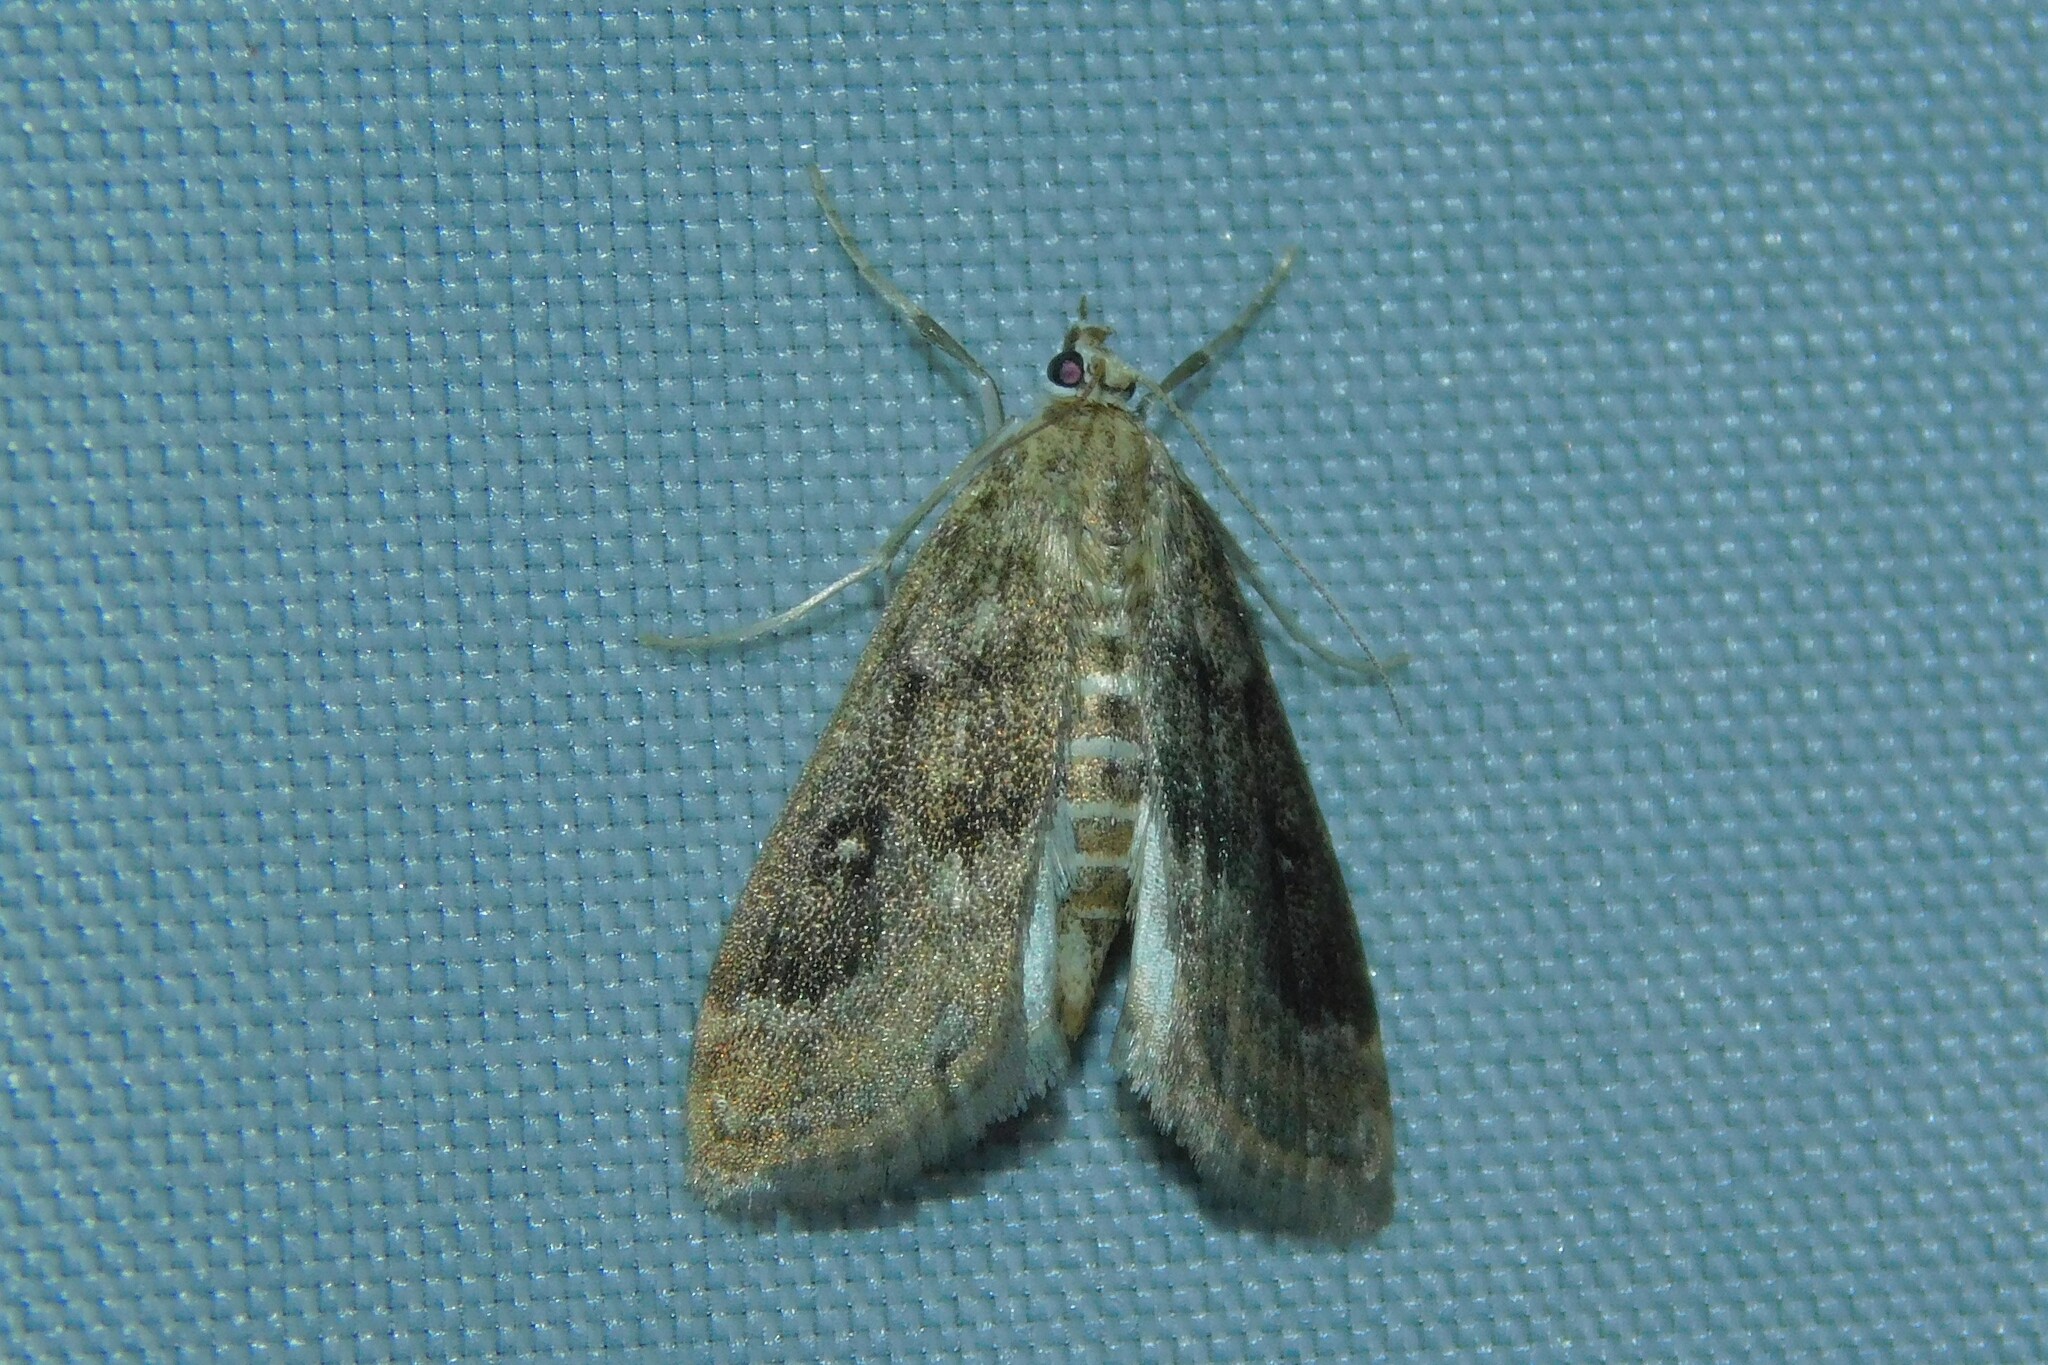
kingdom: Animalia
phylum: Arthropoda
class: Insecta
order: Lepidoptera
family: Crambidae
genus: Parapoynx
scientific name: Parapoynx stratiotata
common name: Ringed china-mark
